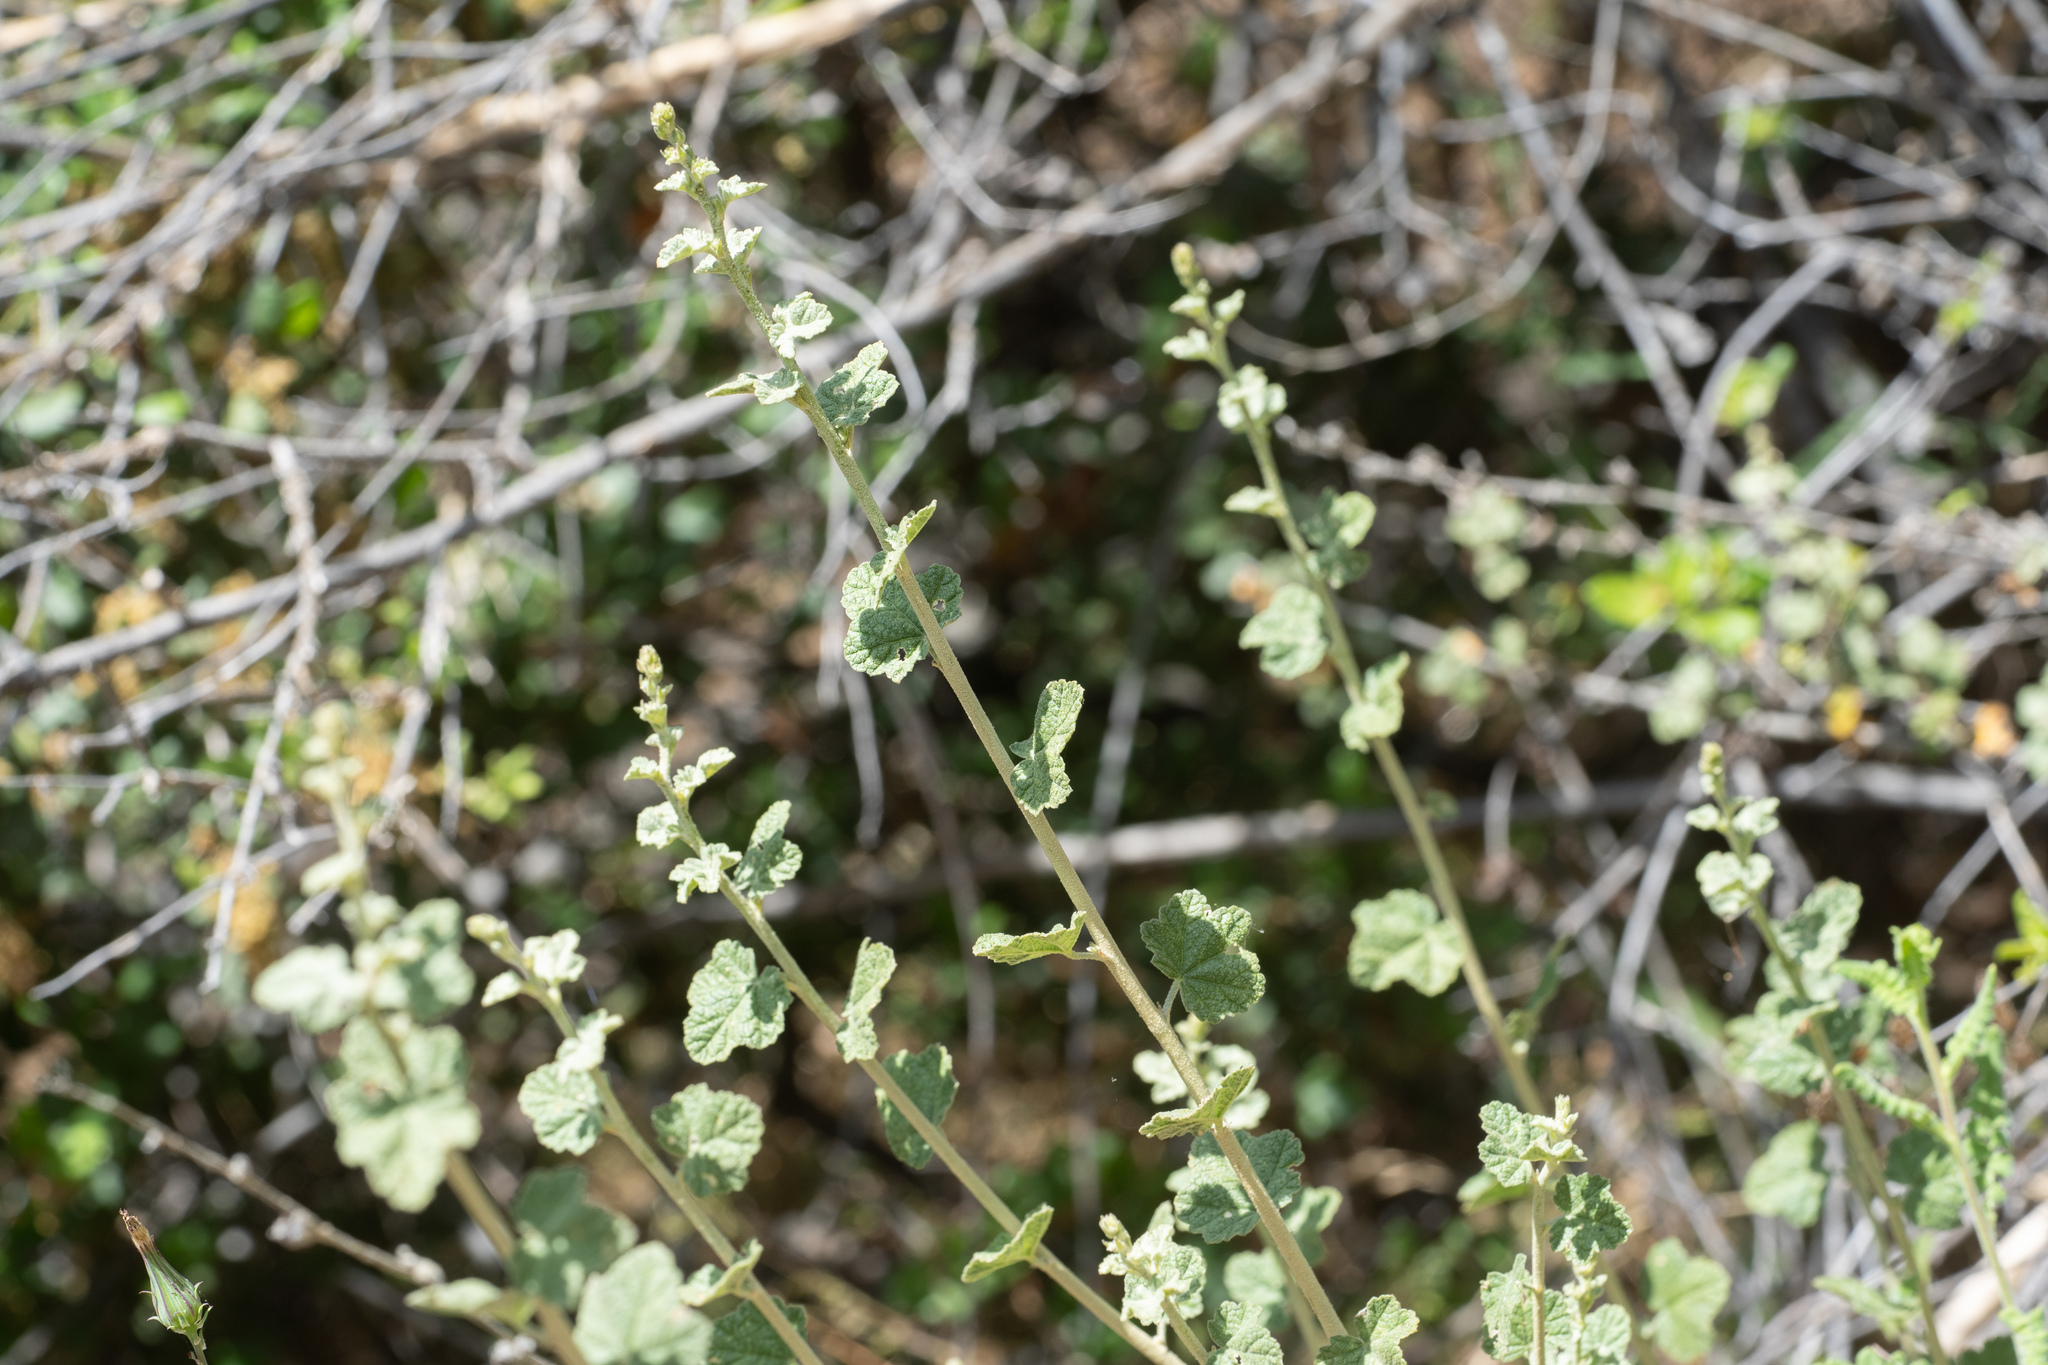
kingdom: Plantae
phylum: Tracheophyta
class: Magnoliopsida
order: Malvales
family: Malvaceae
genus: Malacothamnus
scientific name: Malacothamnus fasciculatus
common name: Sant cruz island bush-mallow
